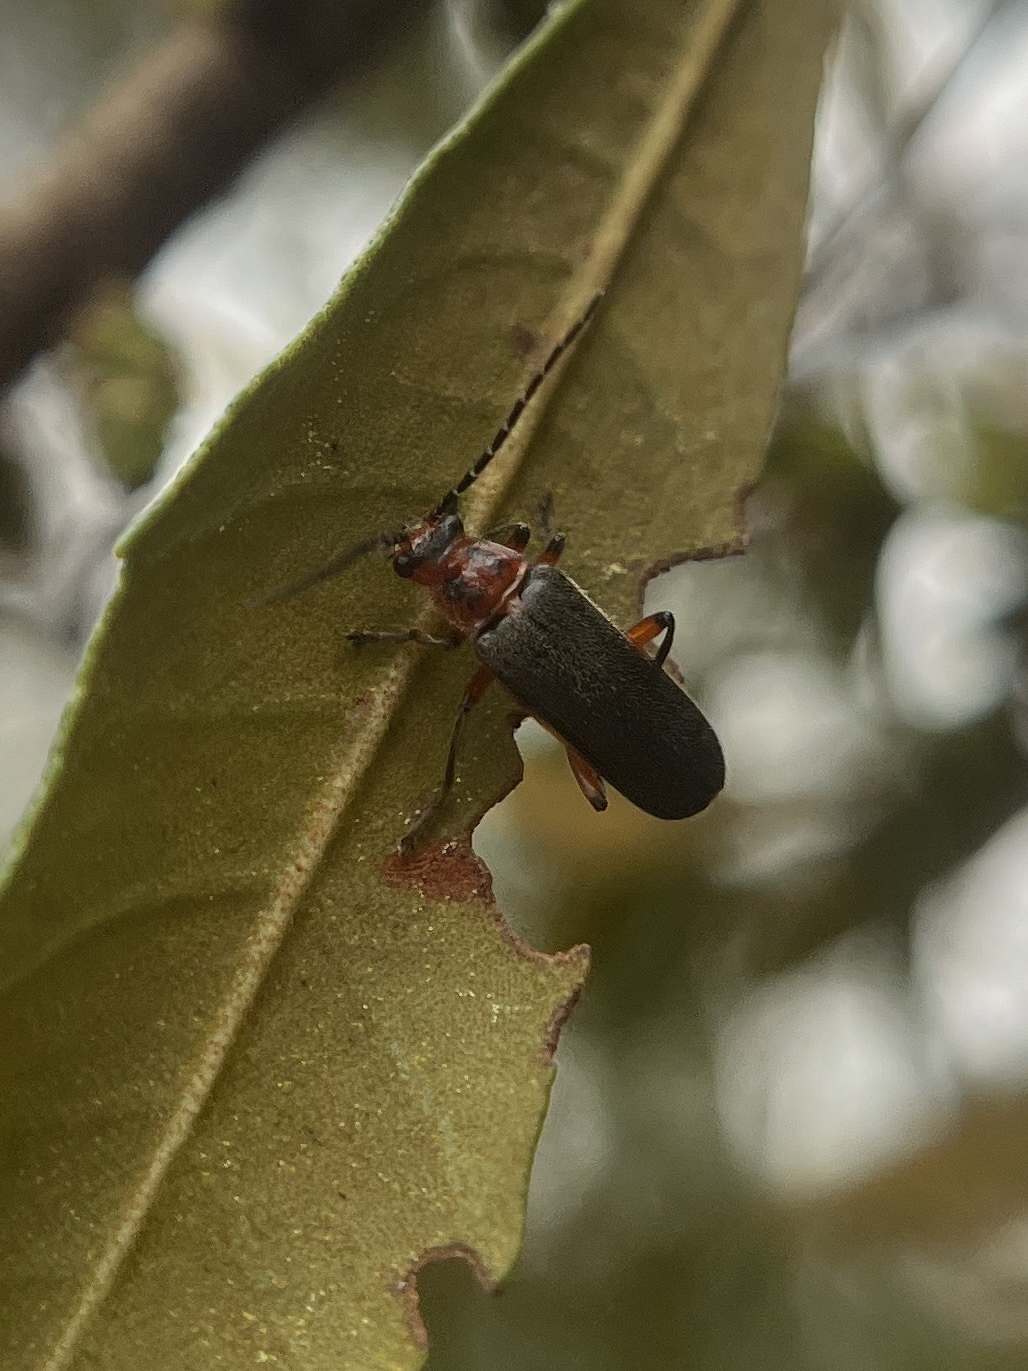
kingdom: Animalia
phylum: Arthropoda
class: Insecta
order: Coleoptera
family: Cantharidae
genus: Atalantycha
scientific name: Atalantycha bilineata
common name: Two-lined leatherwing
